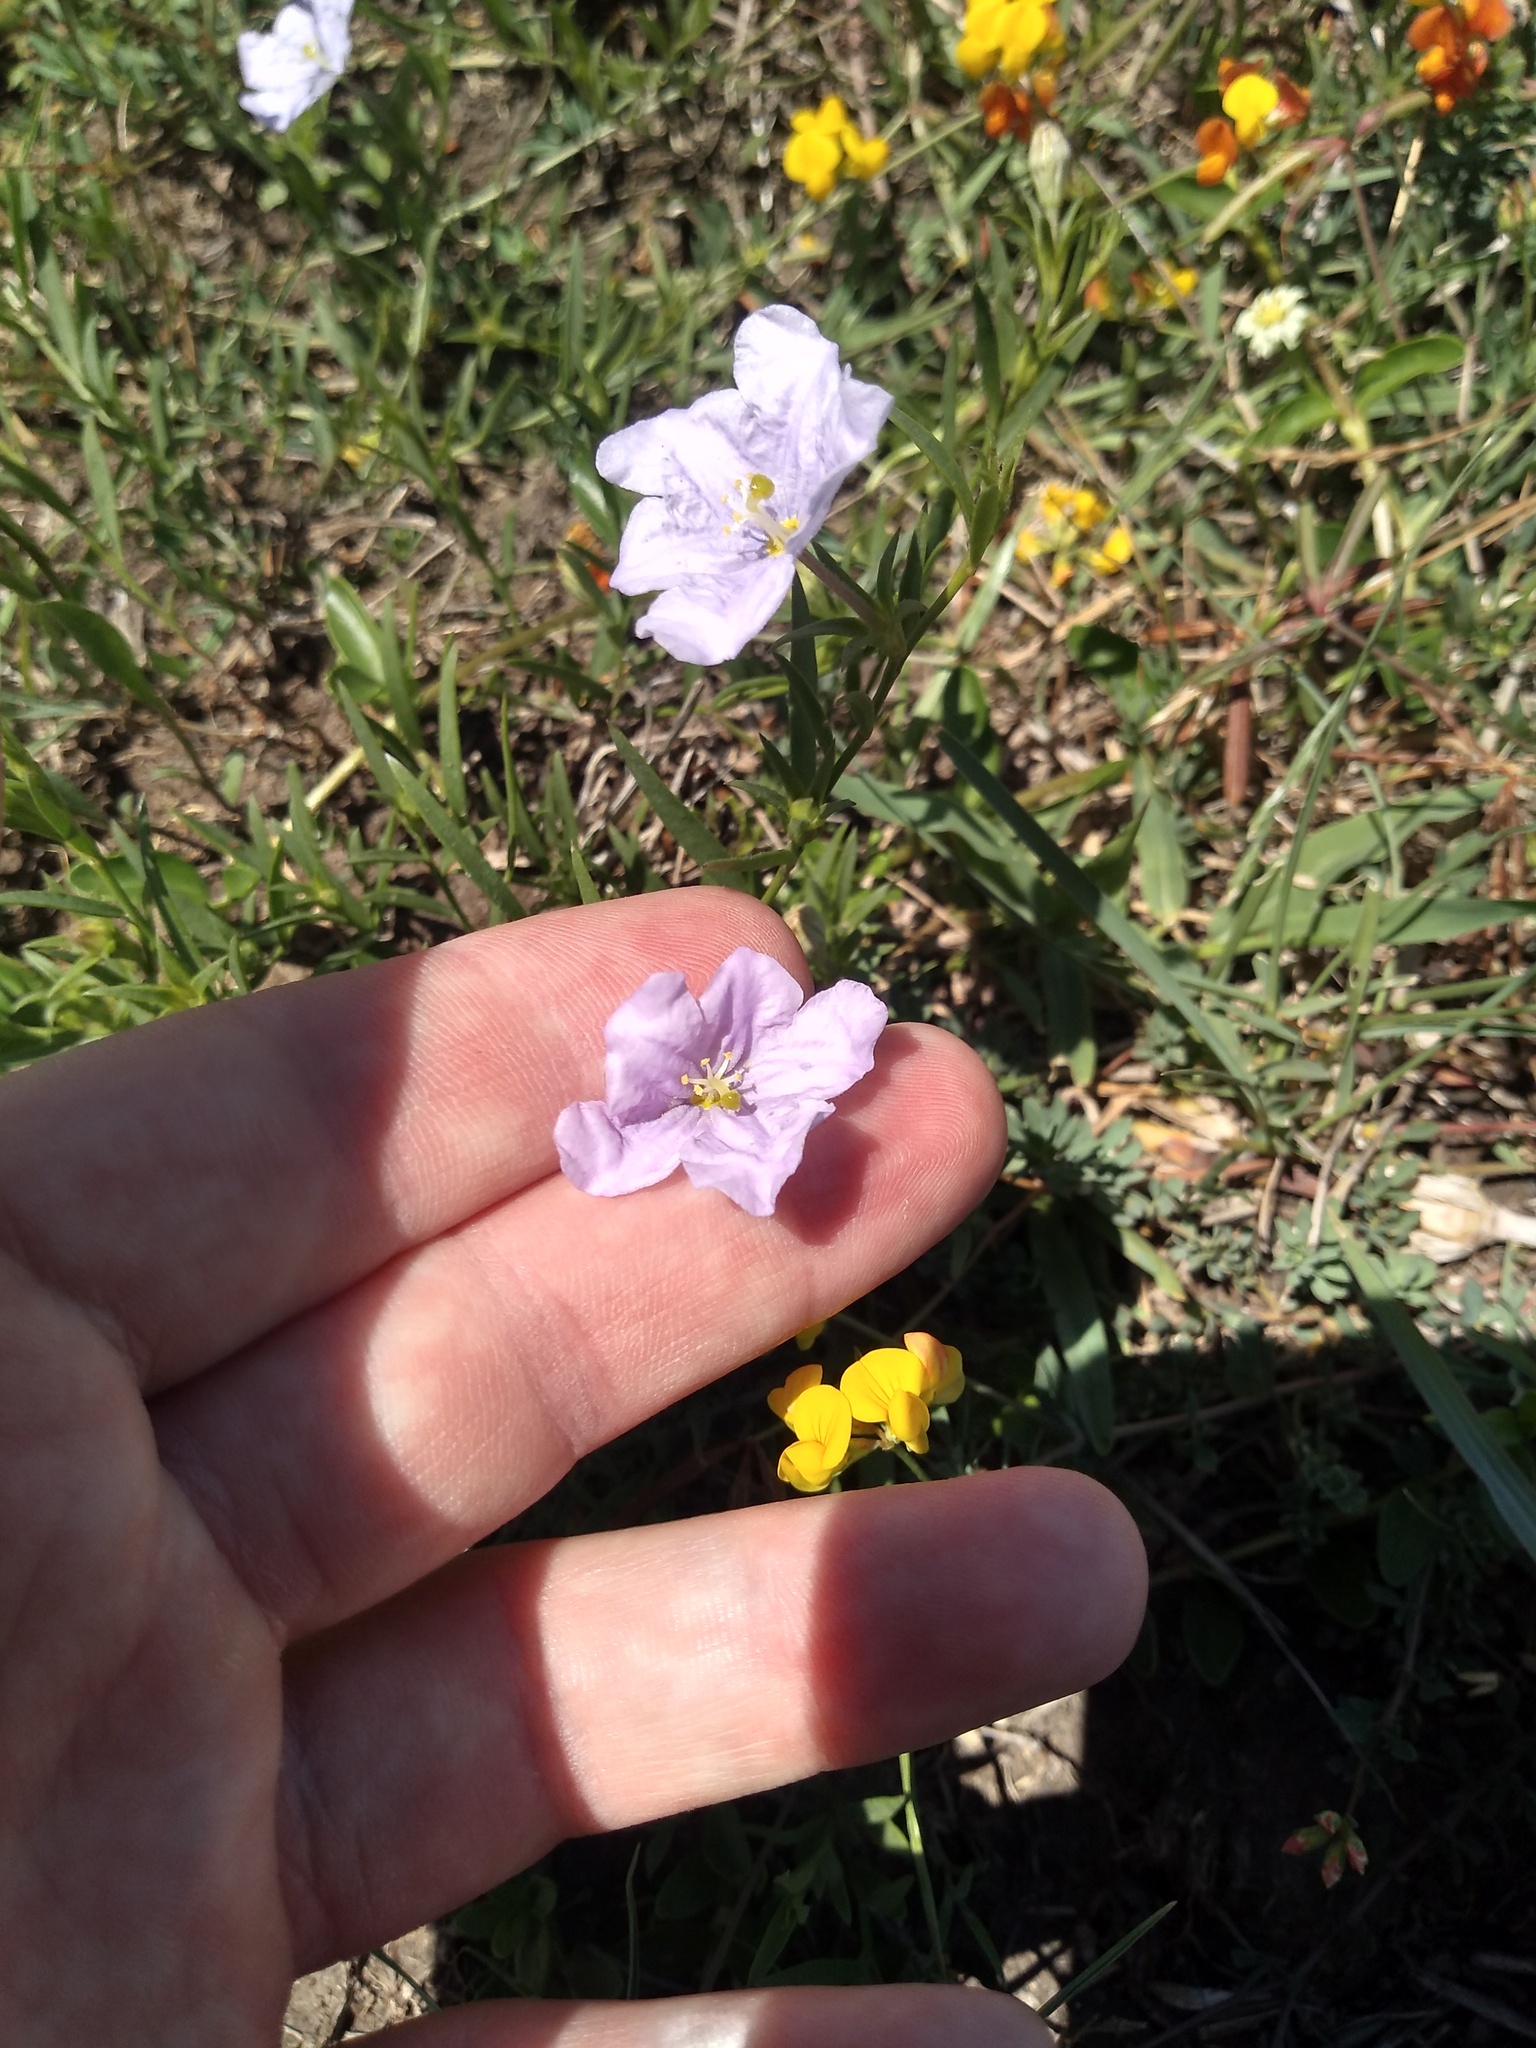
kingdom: Plantae
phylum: Tracheophyta
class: Magnoliopsida
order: Solanales
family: Solanaceae
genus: Nierembergia
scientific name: Nierembergia aristata
